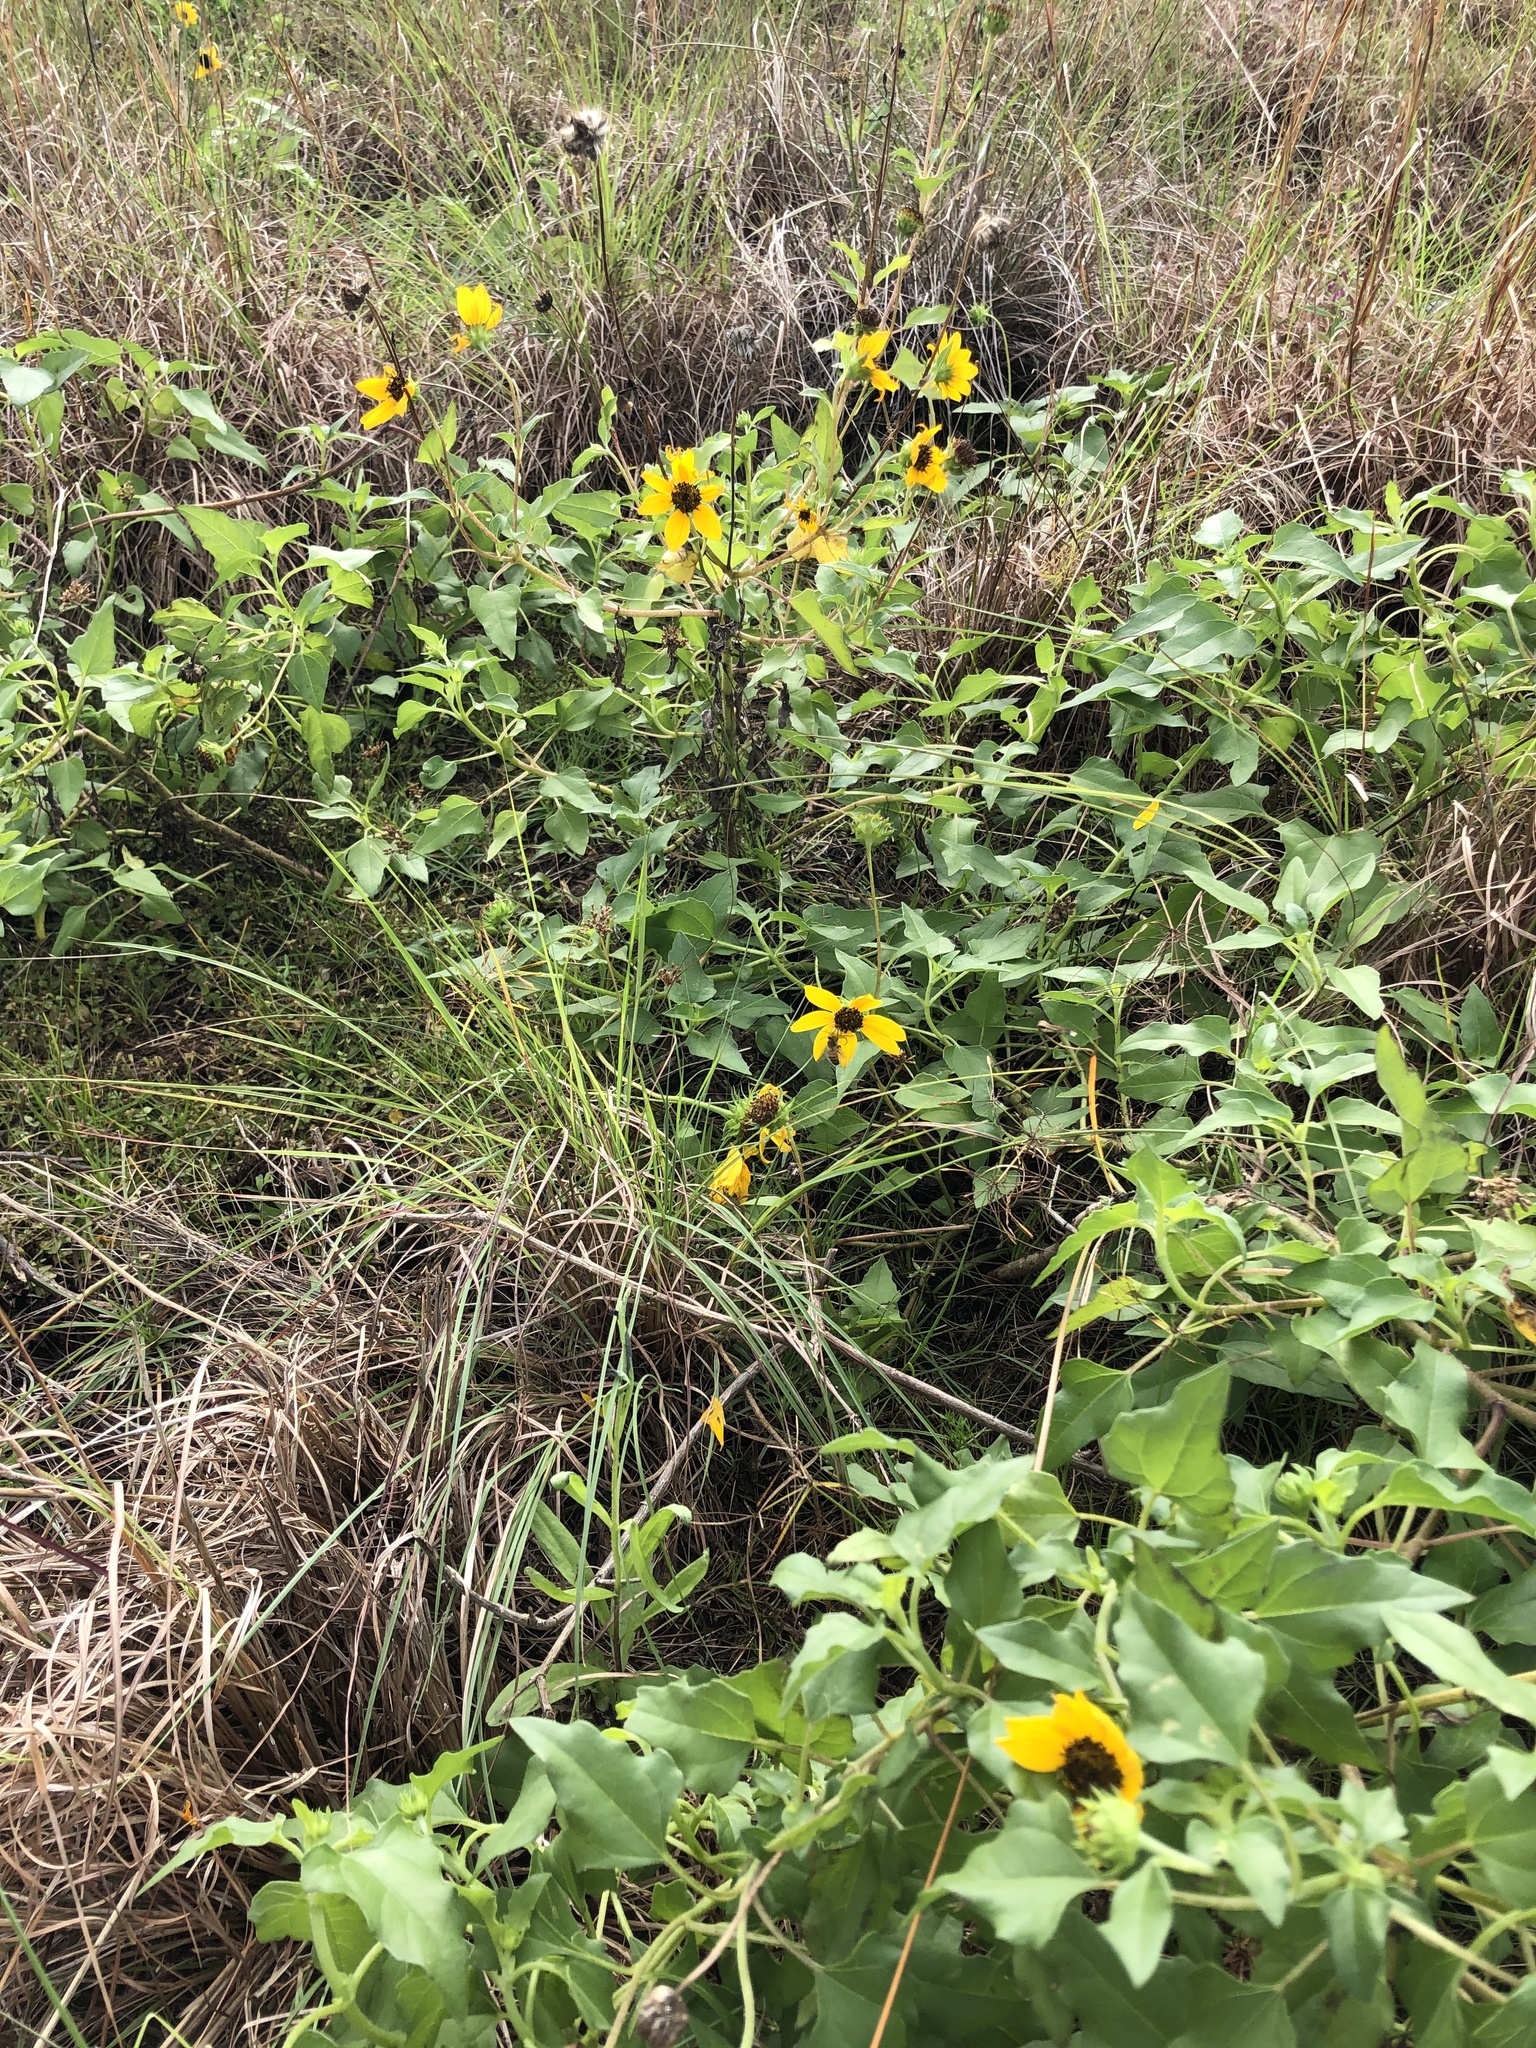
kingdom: Plantae
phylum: Tracheophyta
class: Magnoliopsida
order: Asterales
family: Asteraceae
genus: Helianthus
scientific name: Helianthus debilis
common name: Weak sunflower
